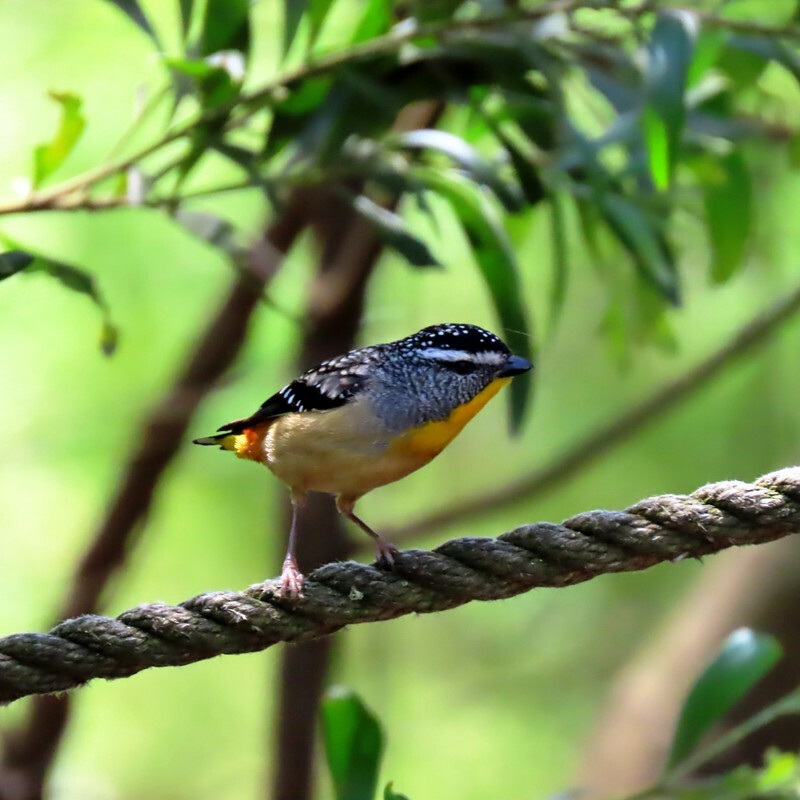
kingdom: Animalia
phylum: Chordata
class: Aves
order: Passeriformes
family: Pardalotidae
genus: Pardalotus
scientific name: Pardalotus punctatus
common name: Spotted pardalote
